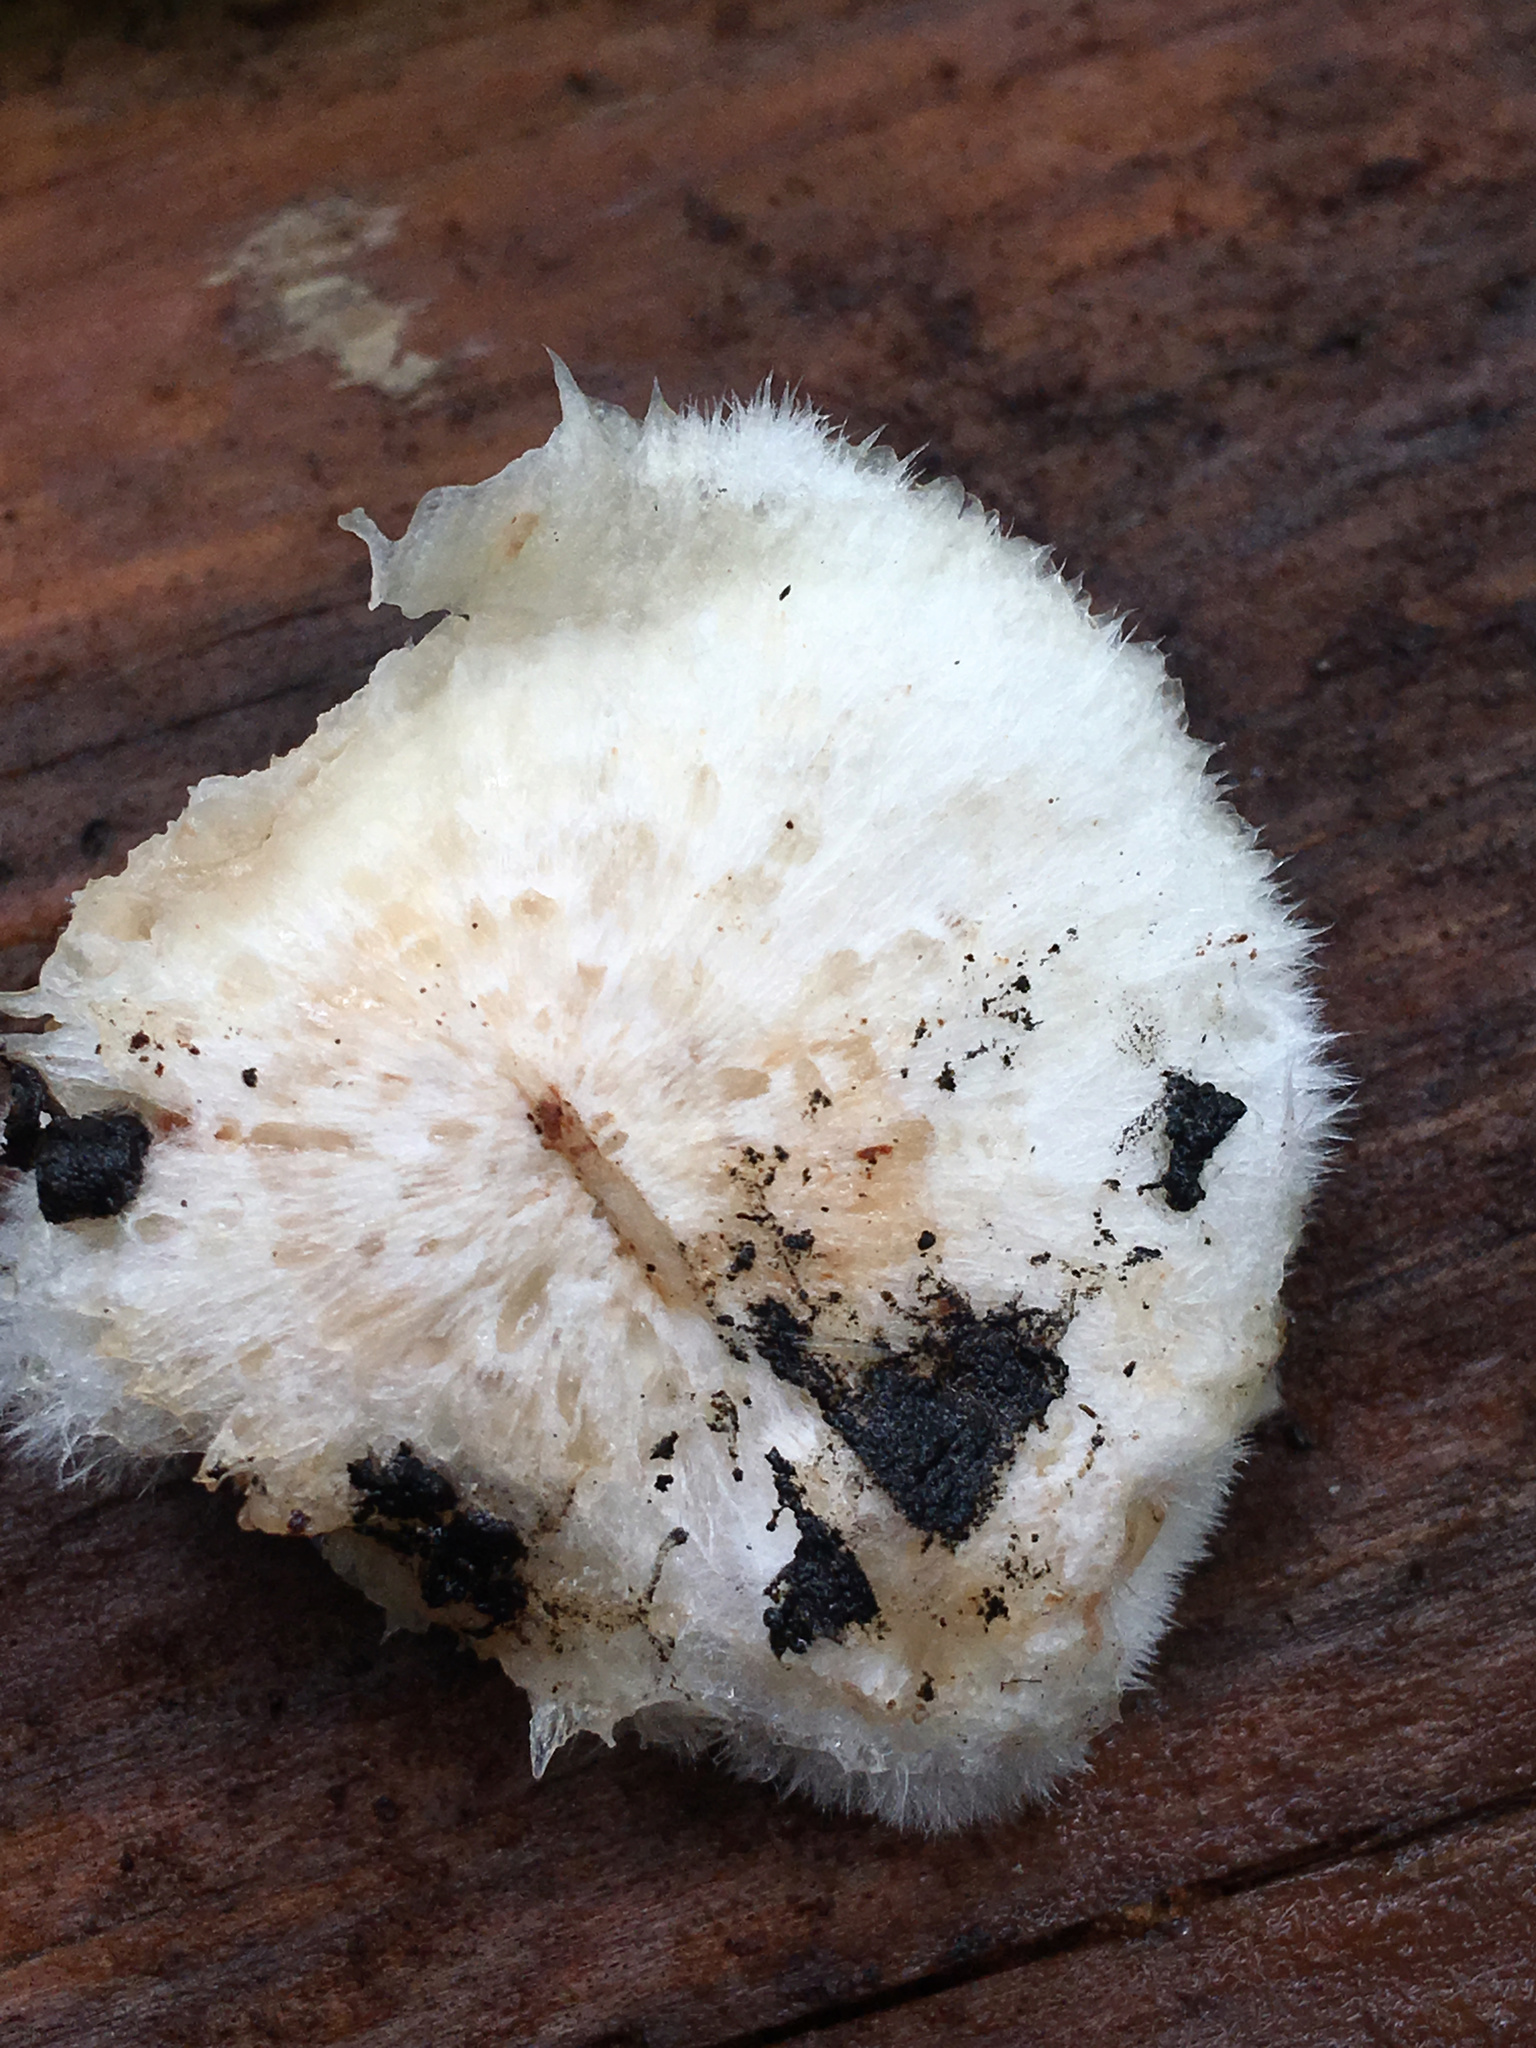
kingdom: Fungi
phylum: Basidiomycota
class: Agaricomycetes
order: Polyporales
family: Meruliaceae
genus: Donkia
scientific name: Donkia pulcherrima
